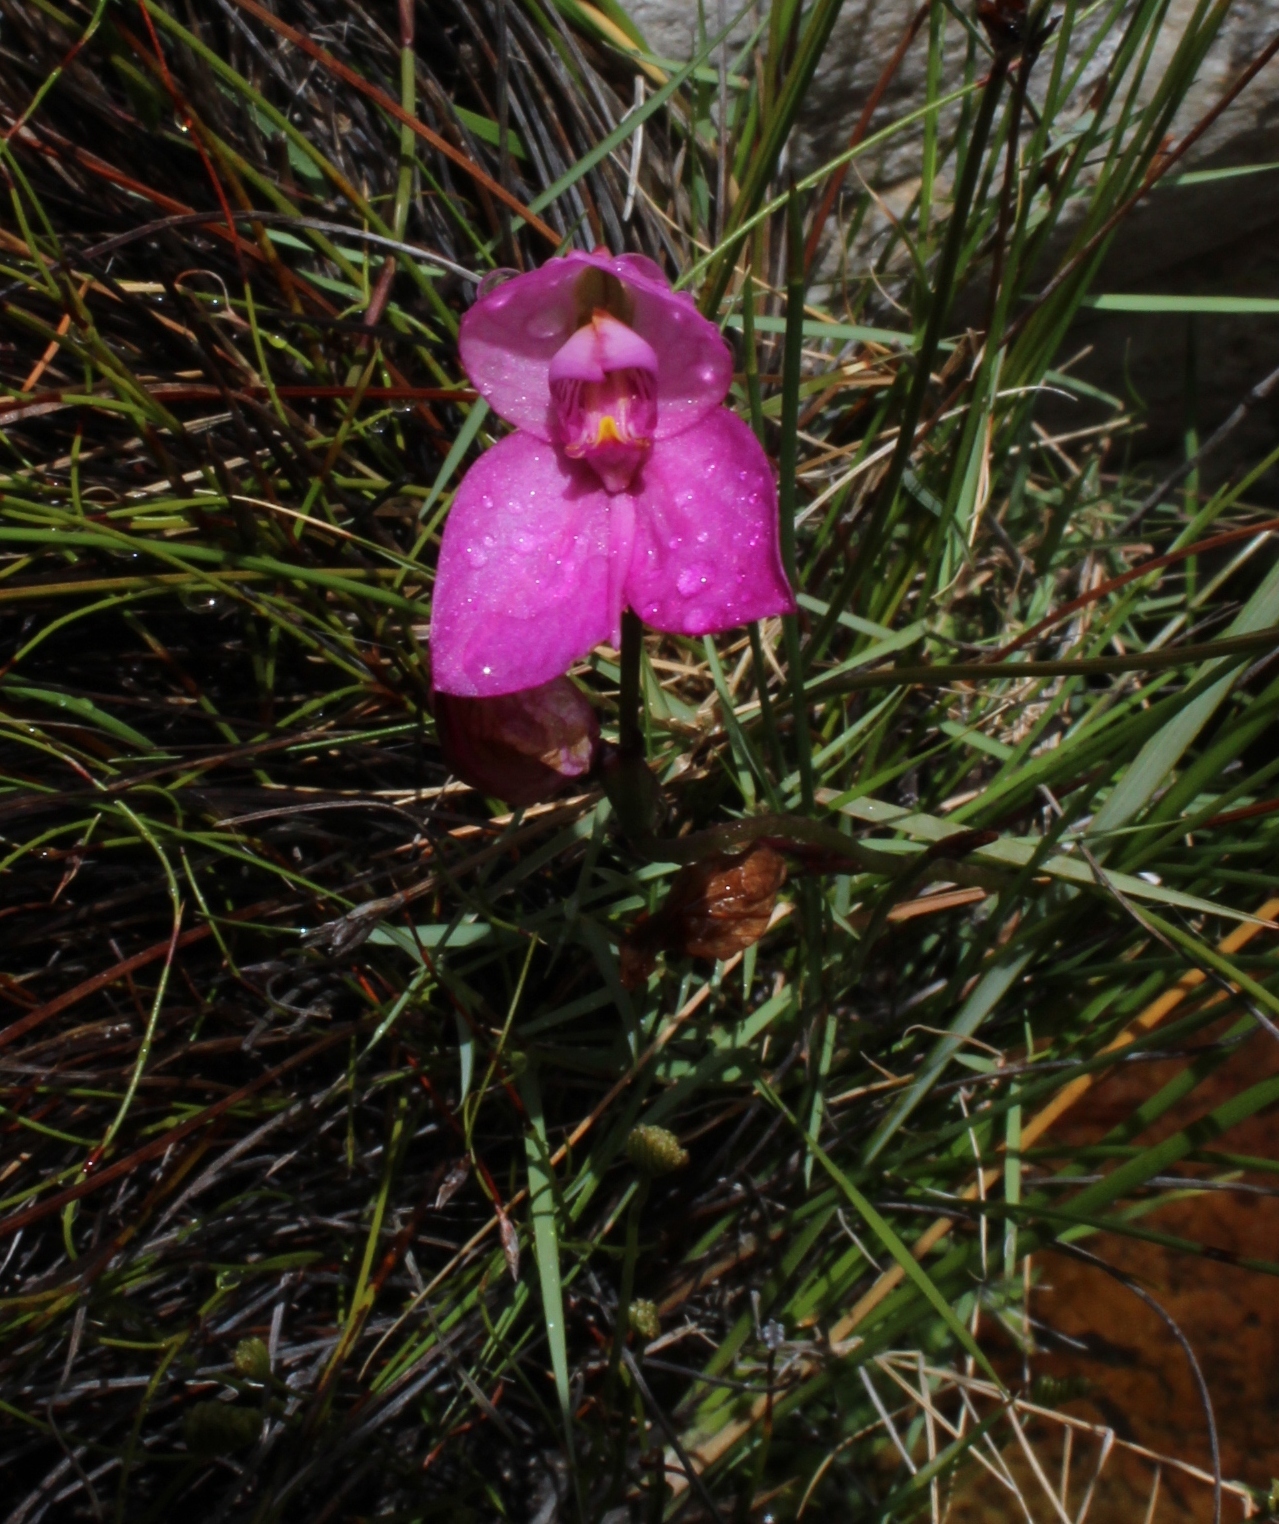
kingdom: Plantae
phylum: Tracheophyta
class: Liliopsida
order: Asparagales
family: Orchidaceae
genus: Disa
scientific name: Disa racemosa
